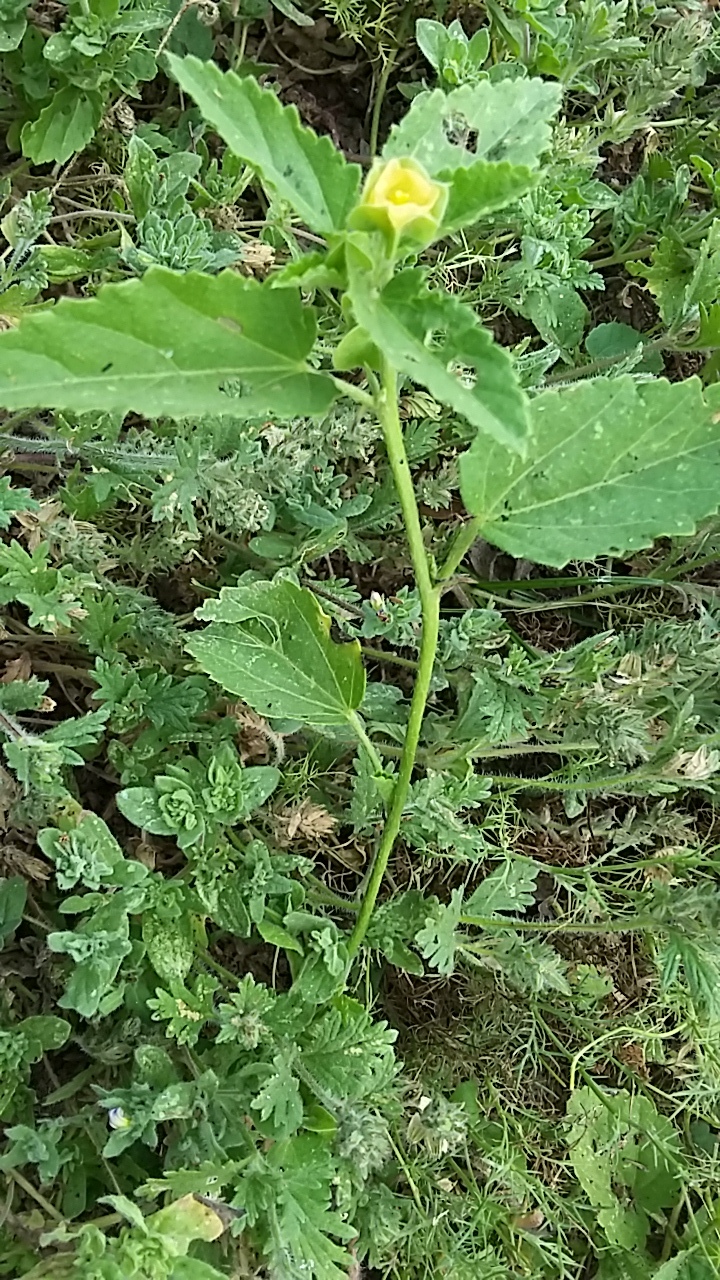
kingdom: Plantae
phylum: Tracheophyta
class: Magnoliopsida
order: Malvales
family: Malvaceae
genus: Rhynchosida
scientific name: Rhynchosida physocalyx
